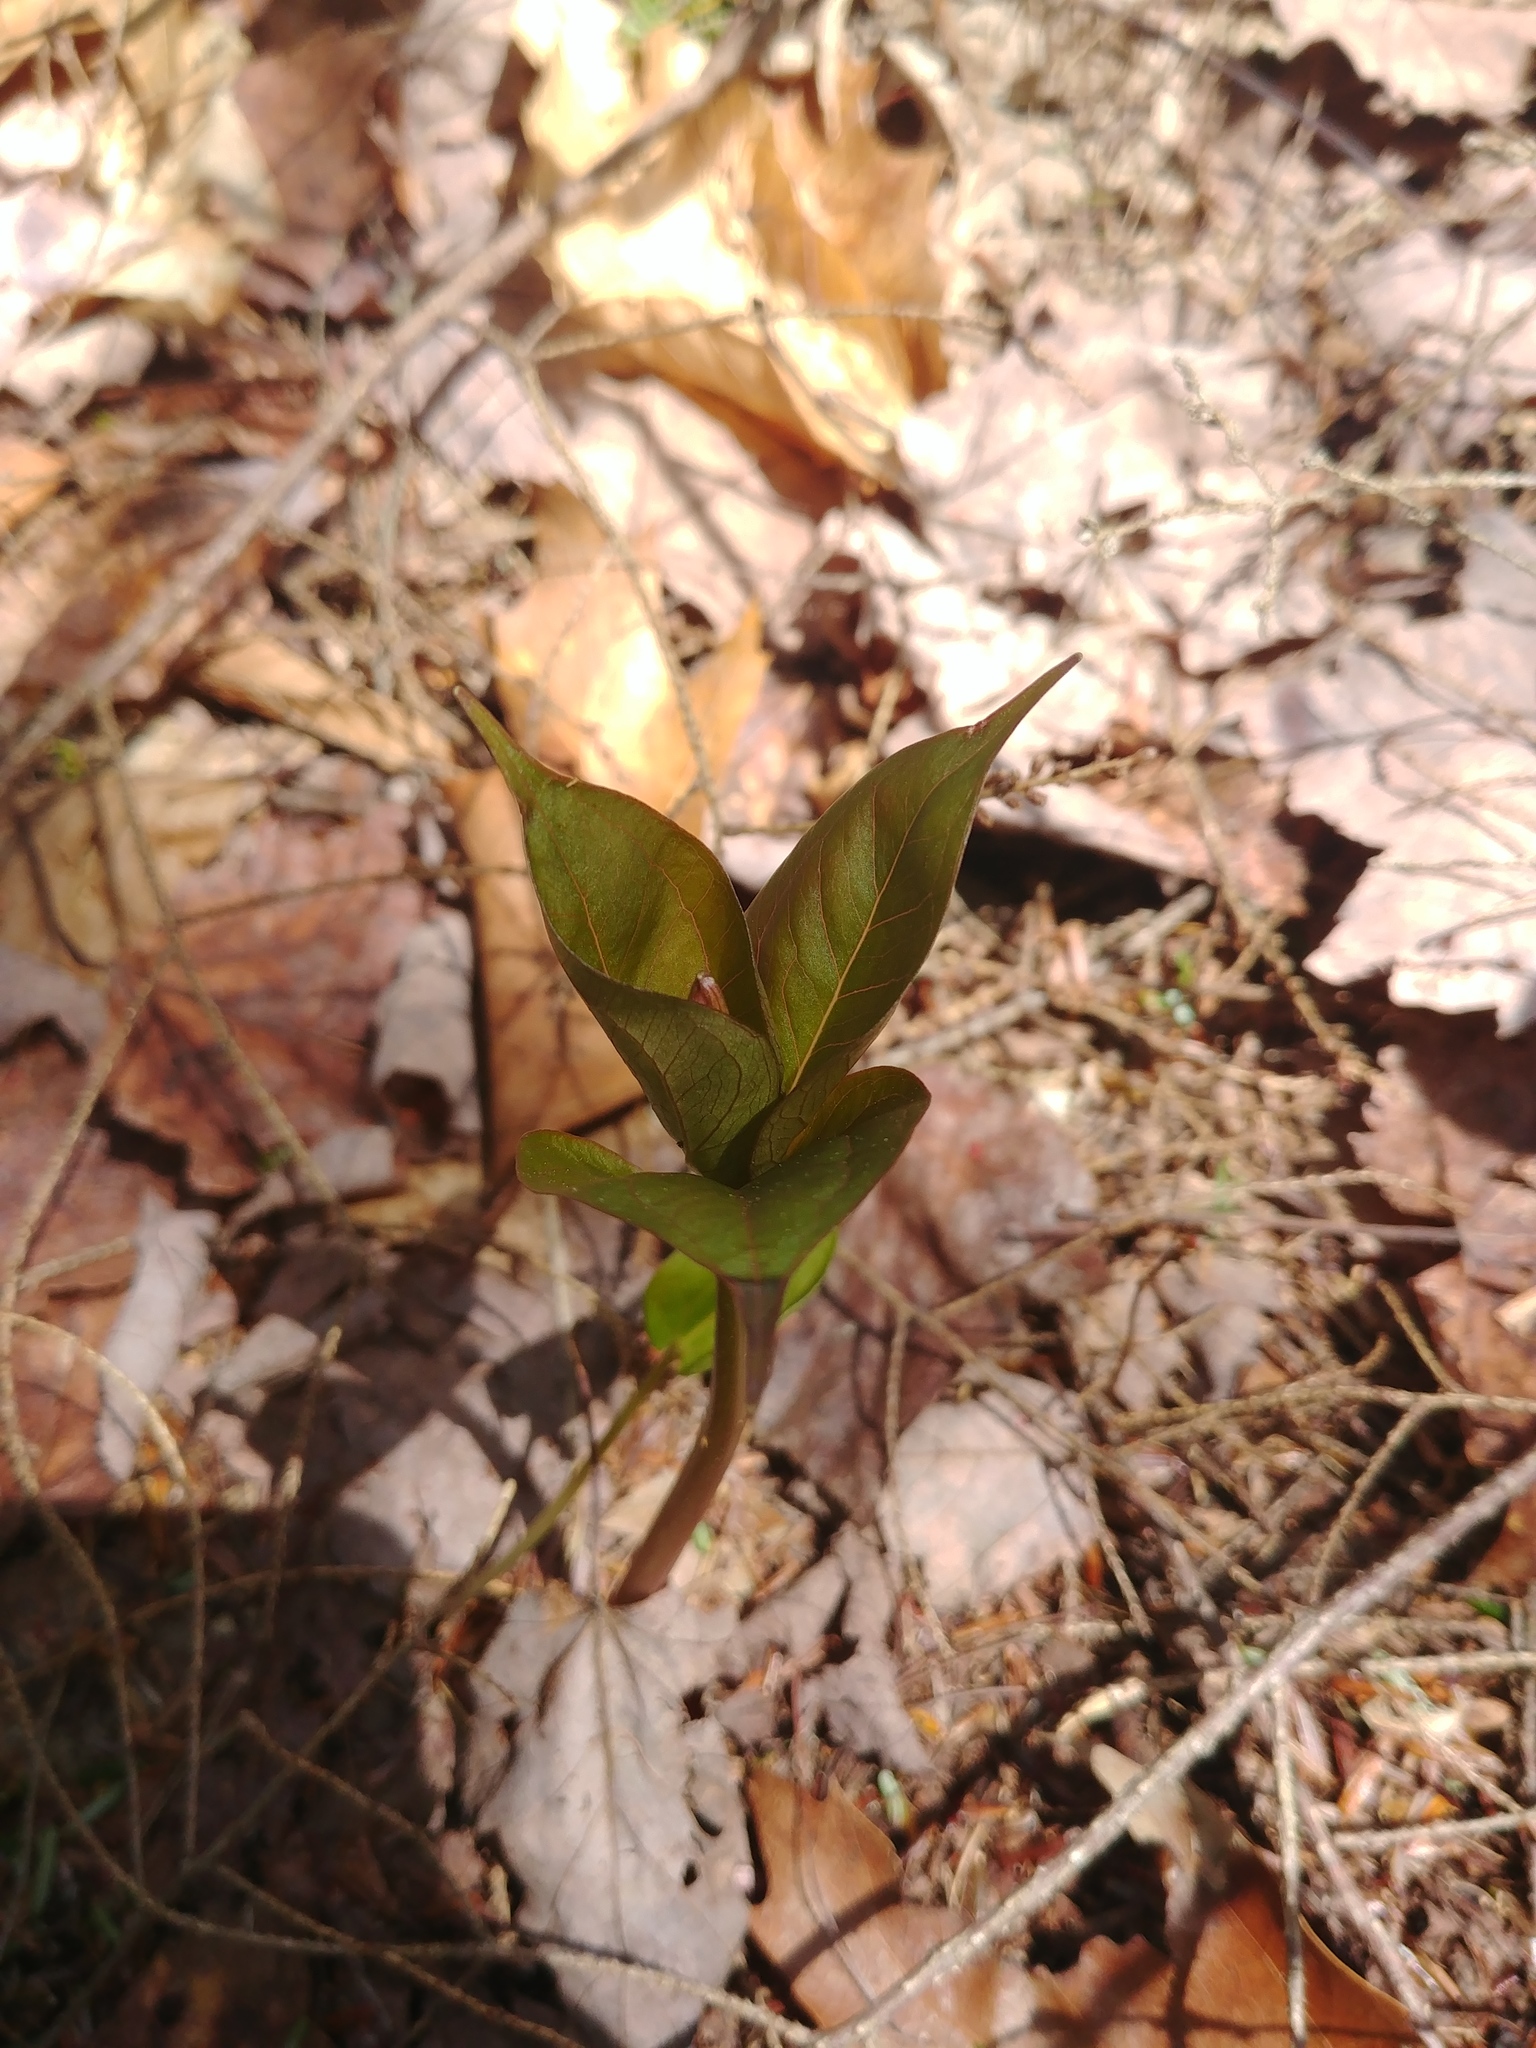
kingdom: Plantae
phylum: Tracheophyta
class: Liliopsida
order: Liliales
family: Melanthiaceae
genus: Trillium
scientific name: Trillium undulatum
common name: Paint trillium
